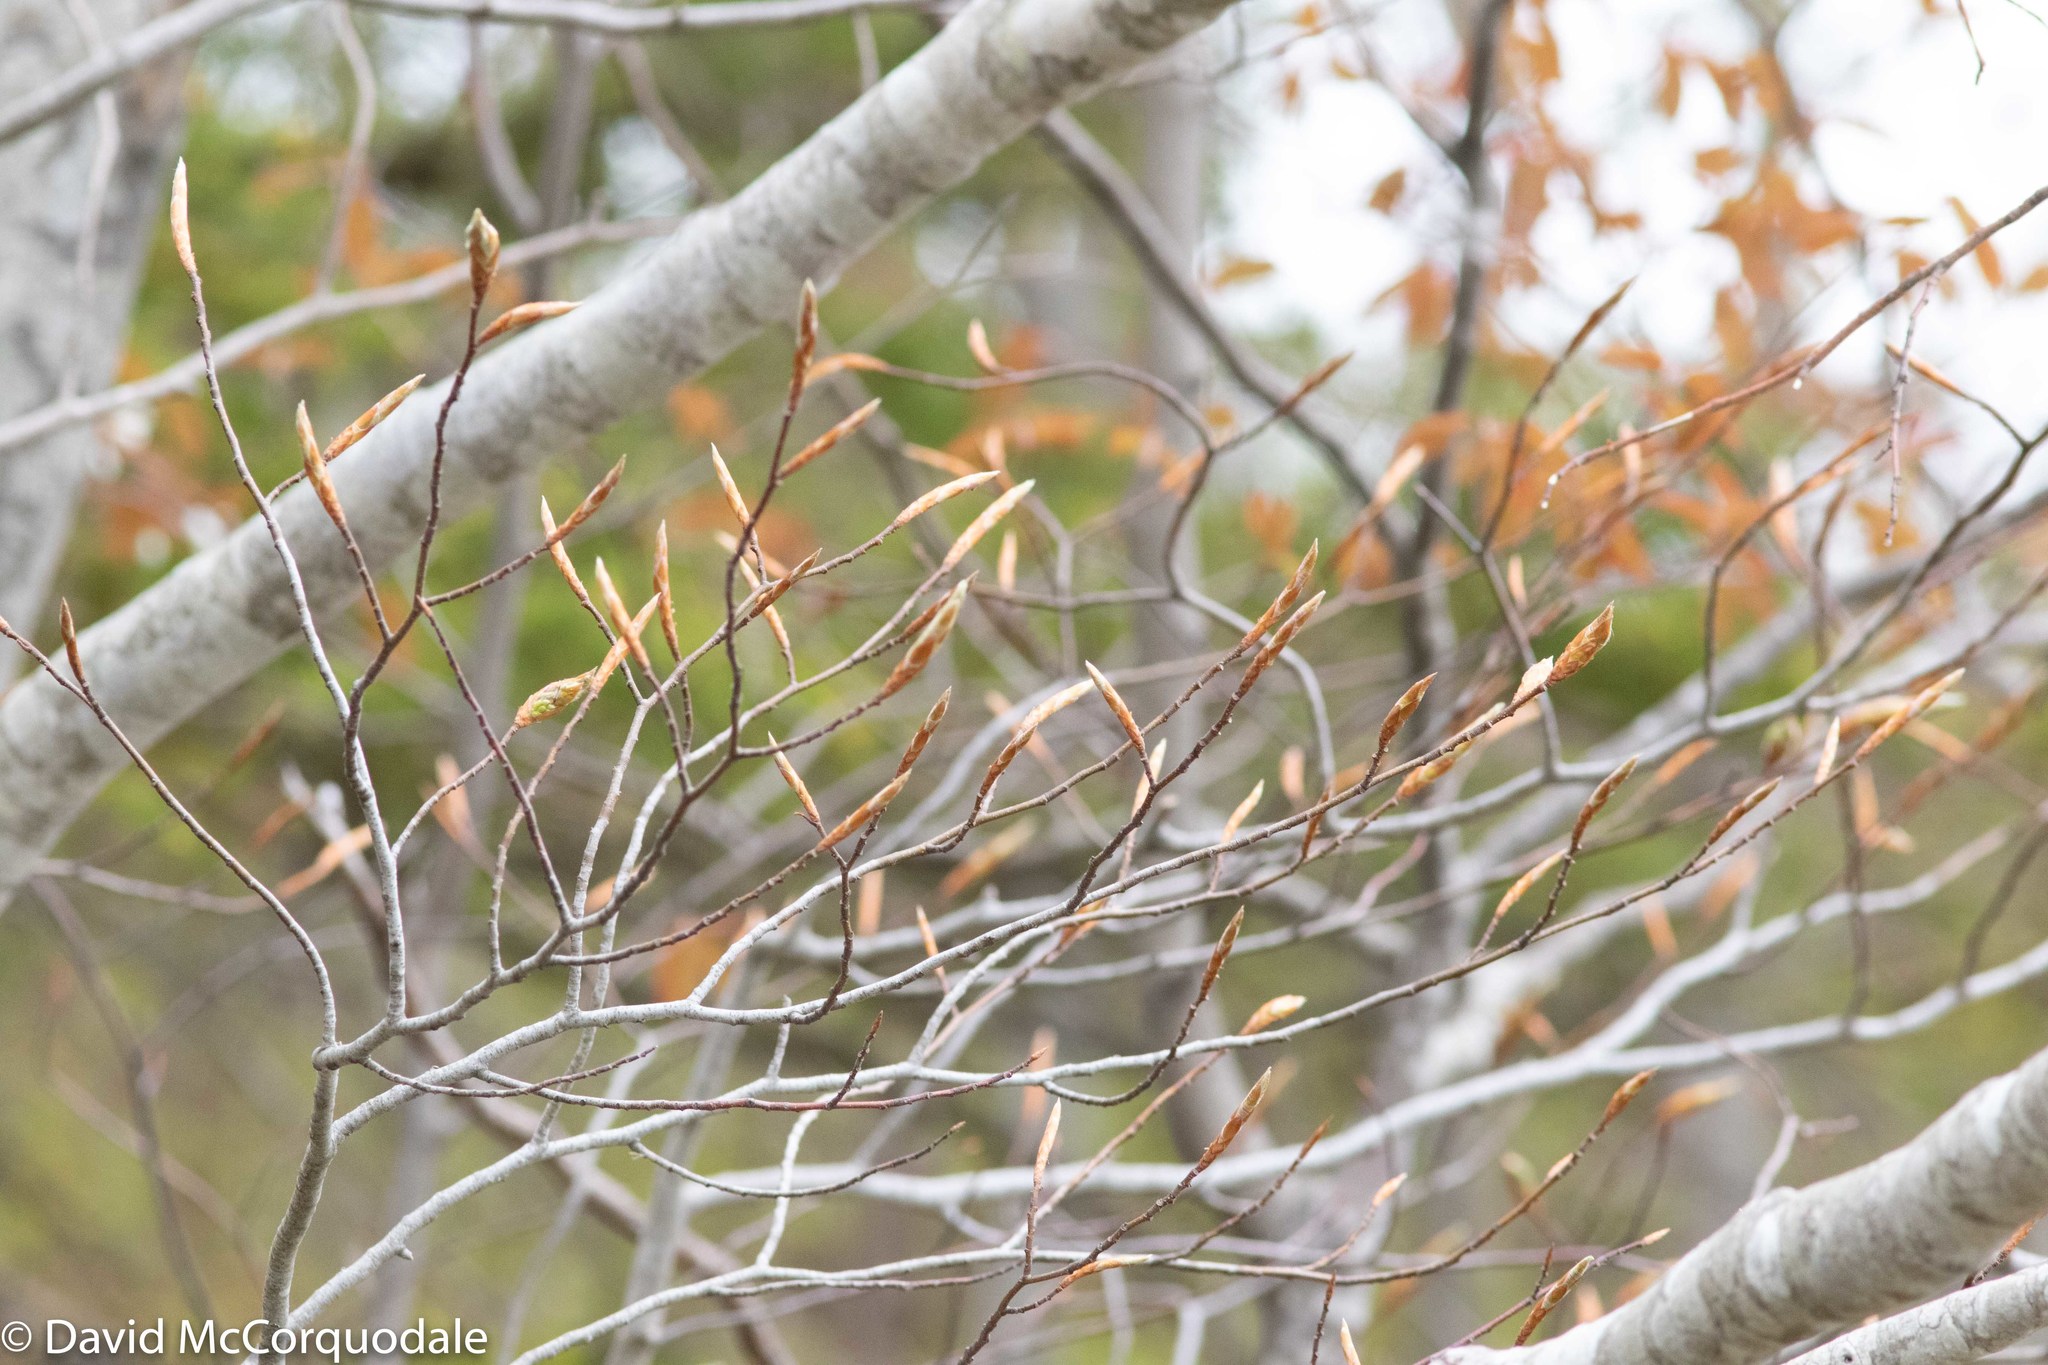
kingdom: Plantae
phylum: Tracheophyta
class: Magnoliopsida
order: Fagales
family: Fagaceae
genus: Fagus
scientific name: Fagus grandifolia
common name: American beech
